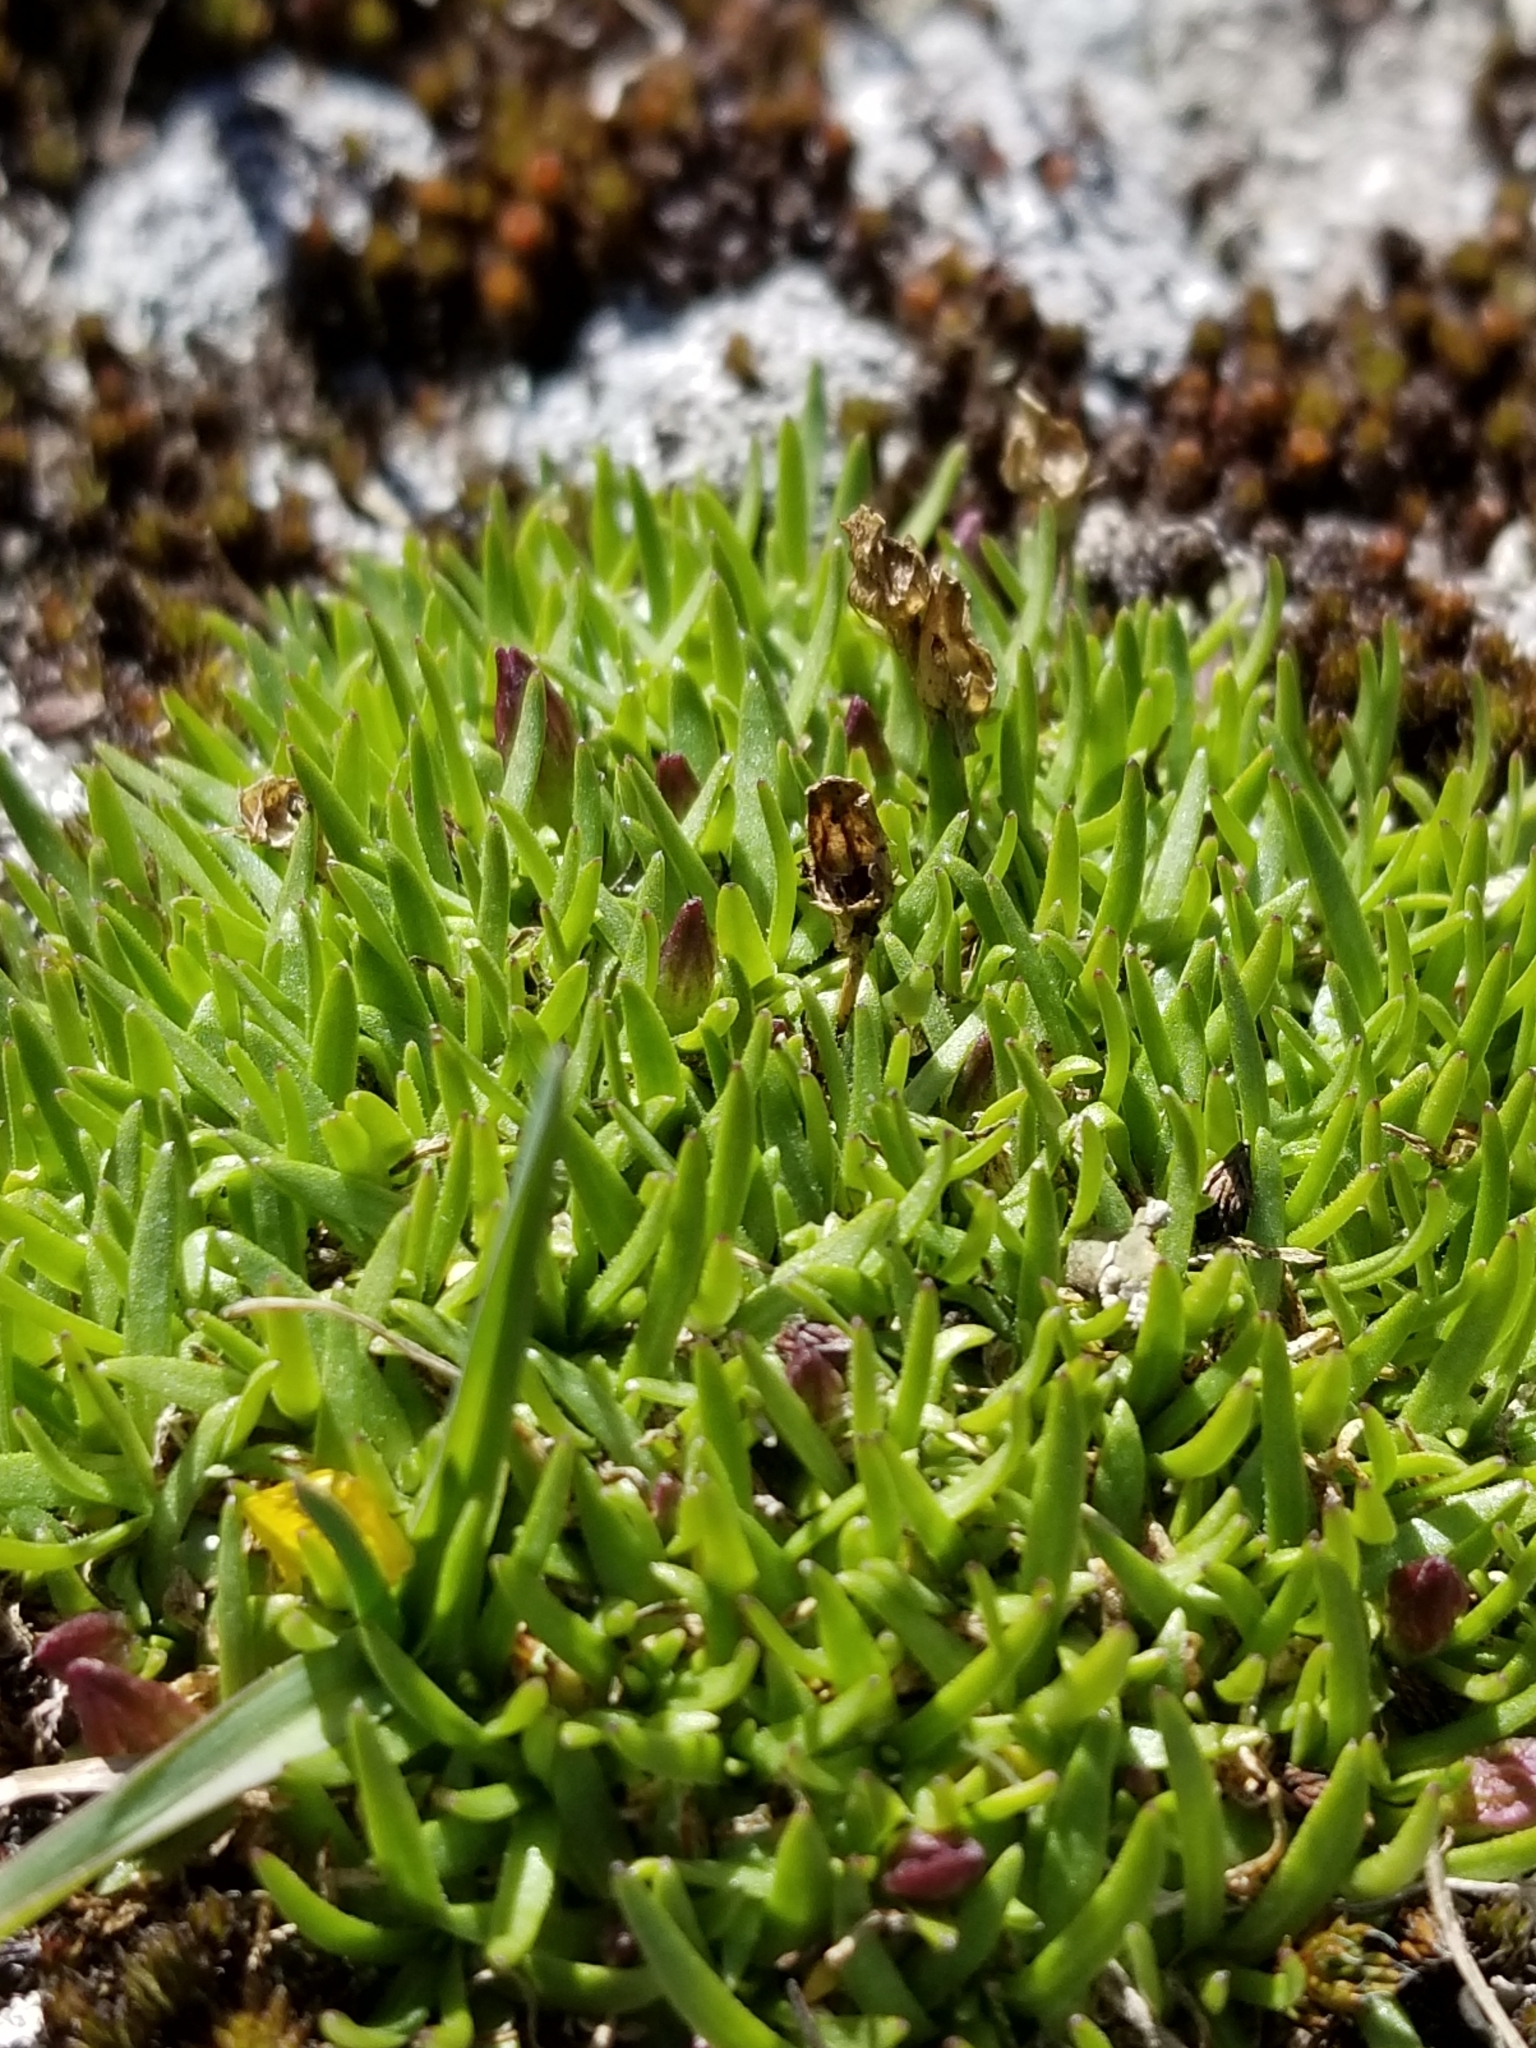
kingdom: Plantae
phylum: Tracheophyta
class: Magnoliopsida
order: Caryophyllales
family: Caryophyllaceae
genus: Silene
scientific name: Silene acaulis
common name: Moss campion
